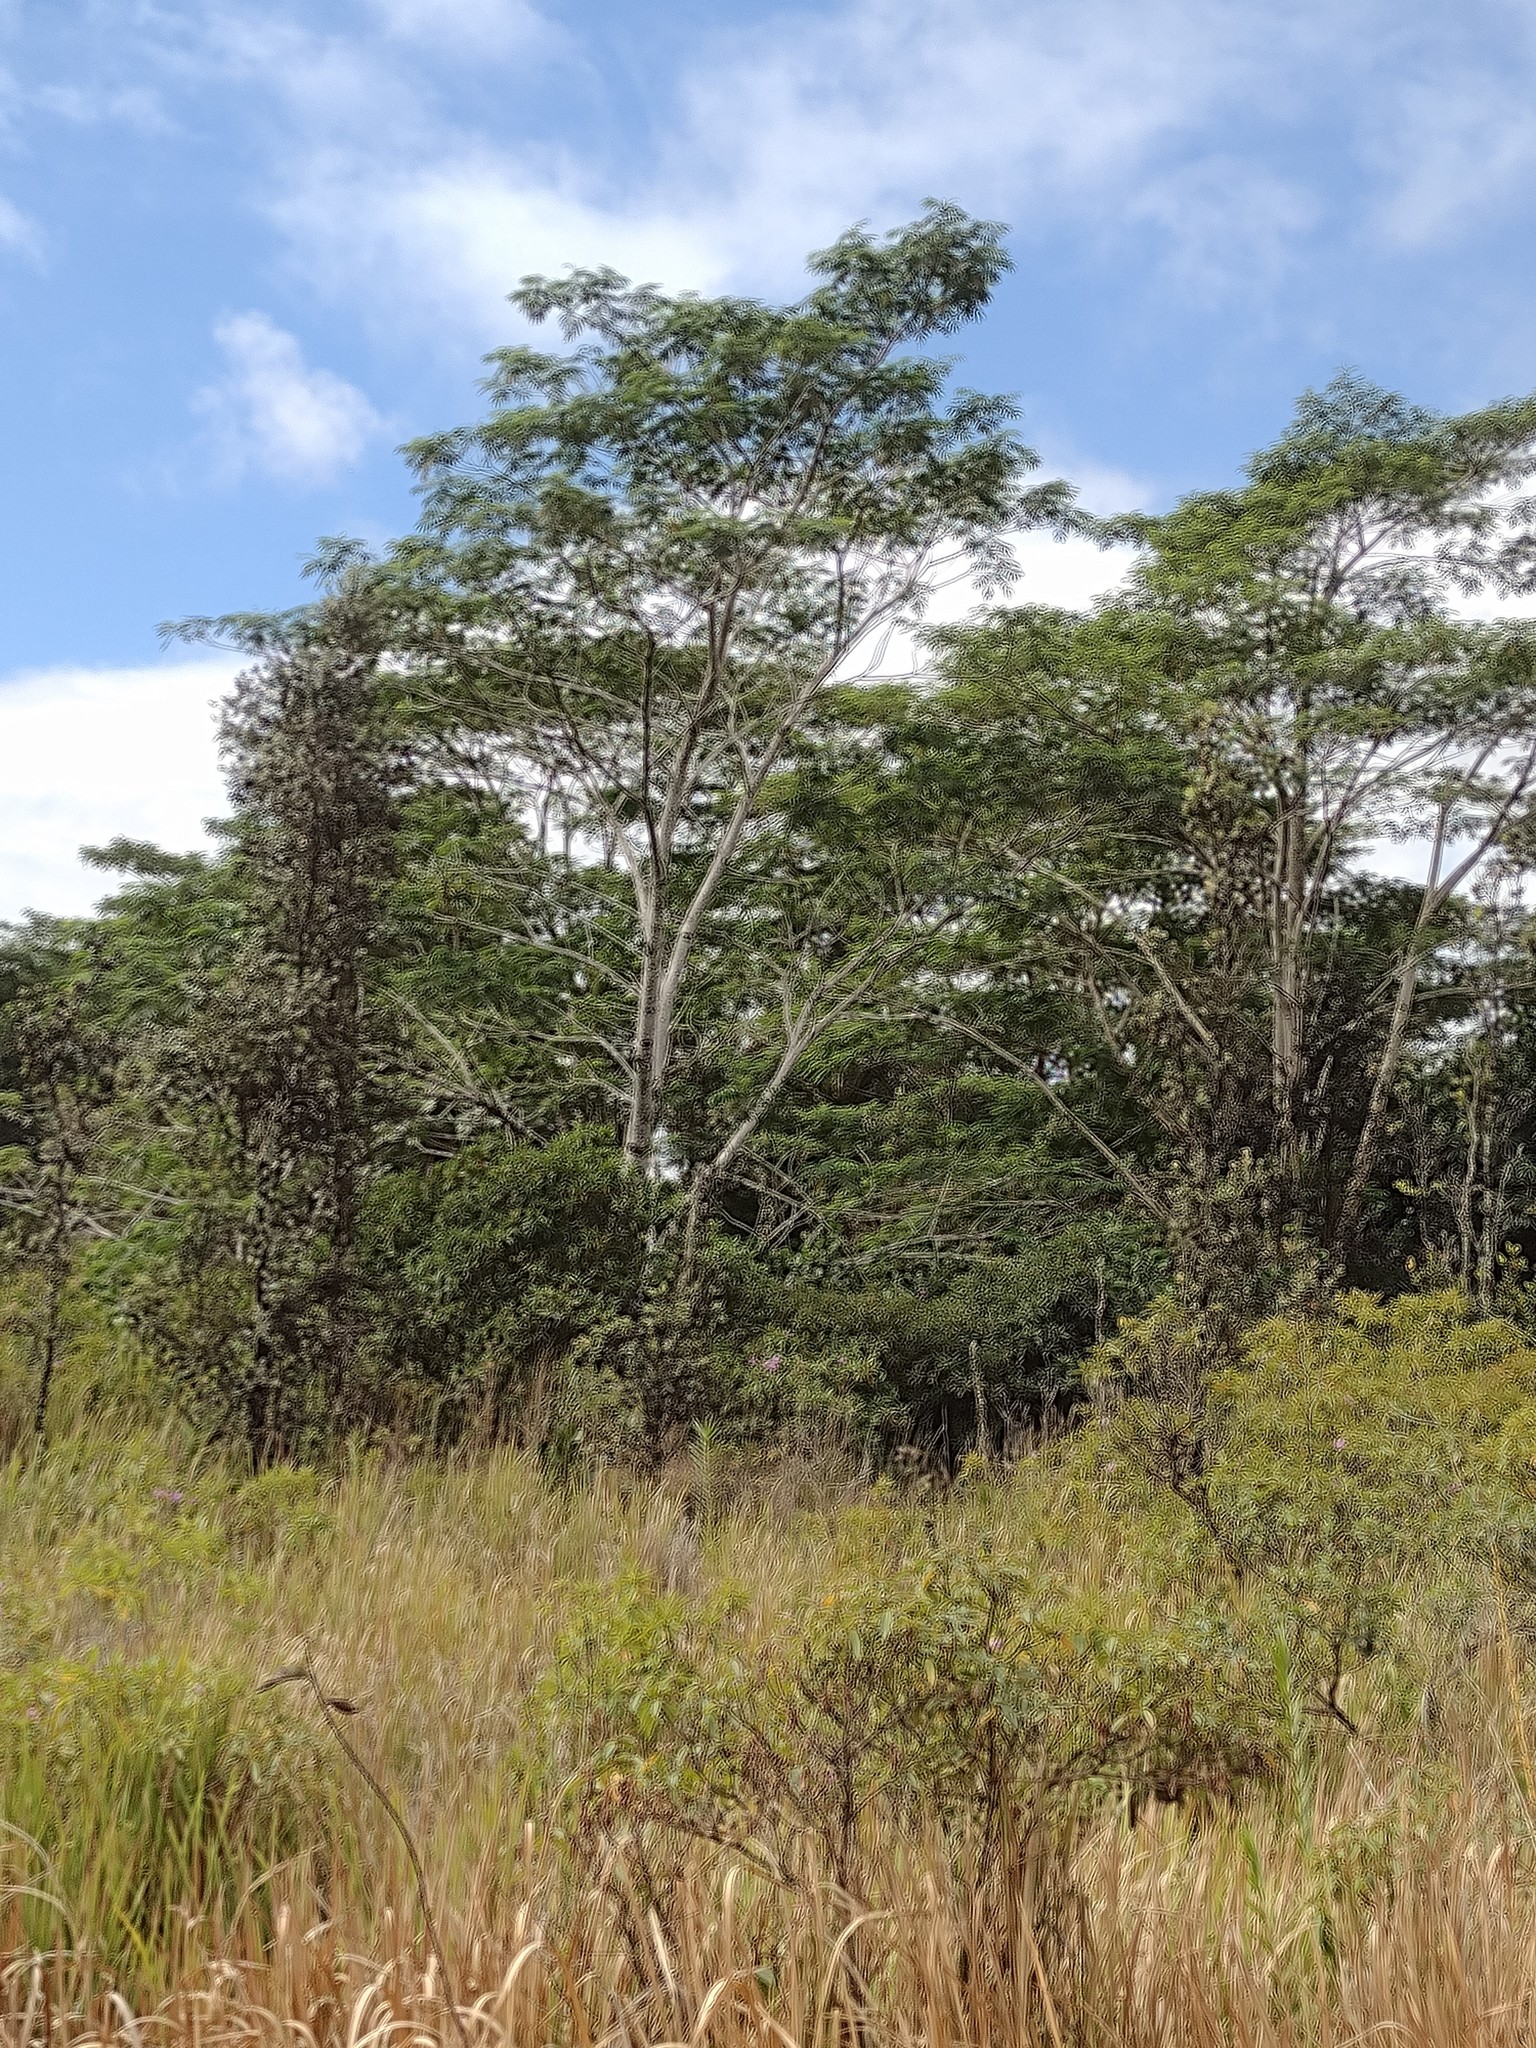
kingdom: Plantae
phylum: Tracheophyta
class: Magnoliopsida
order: Fabales
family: Fabaceae
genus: Falcataria
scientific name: Falcataria falcata
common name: Moluccan albizia
